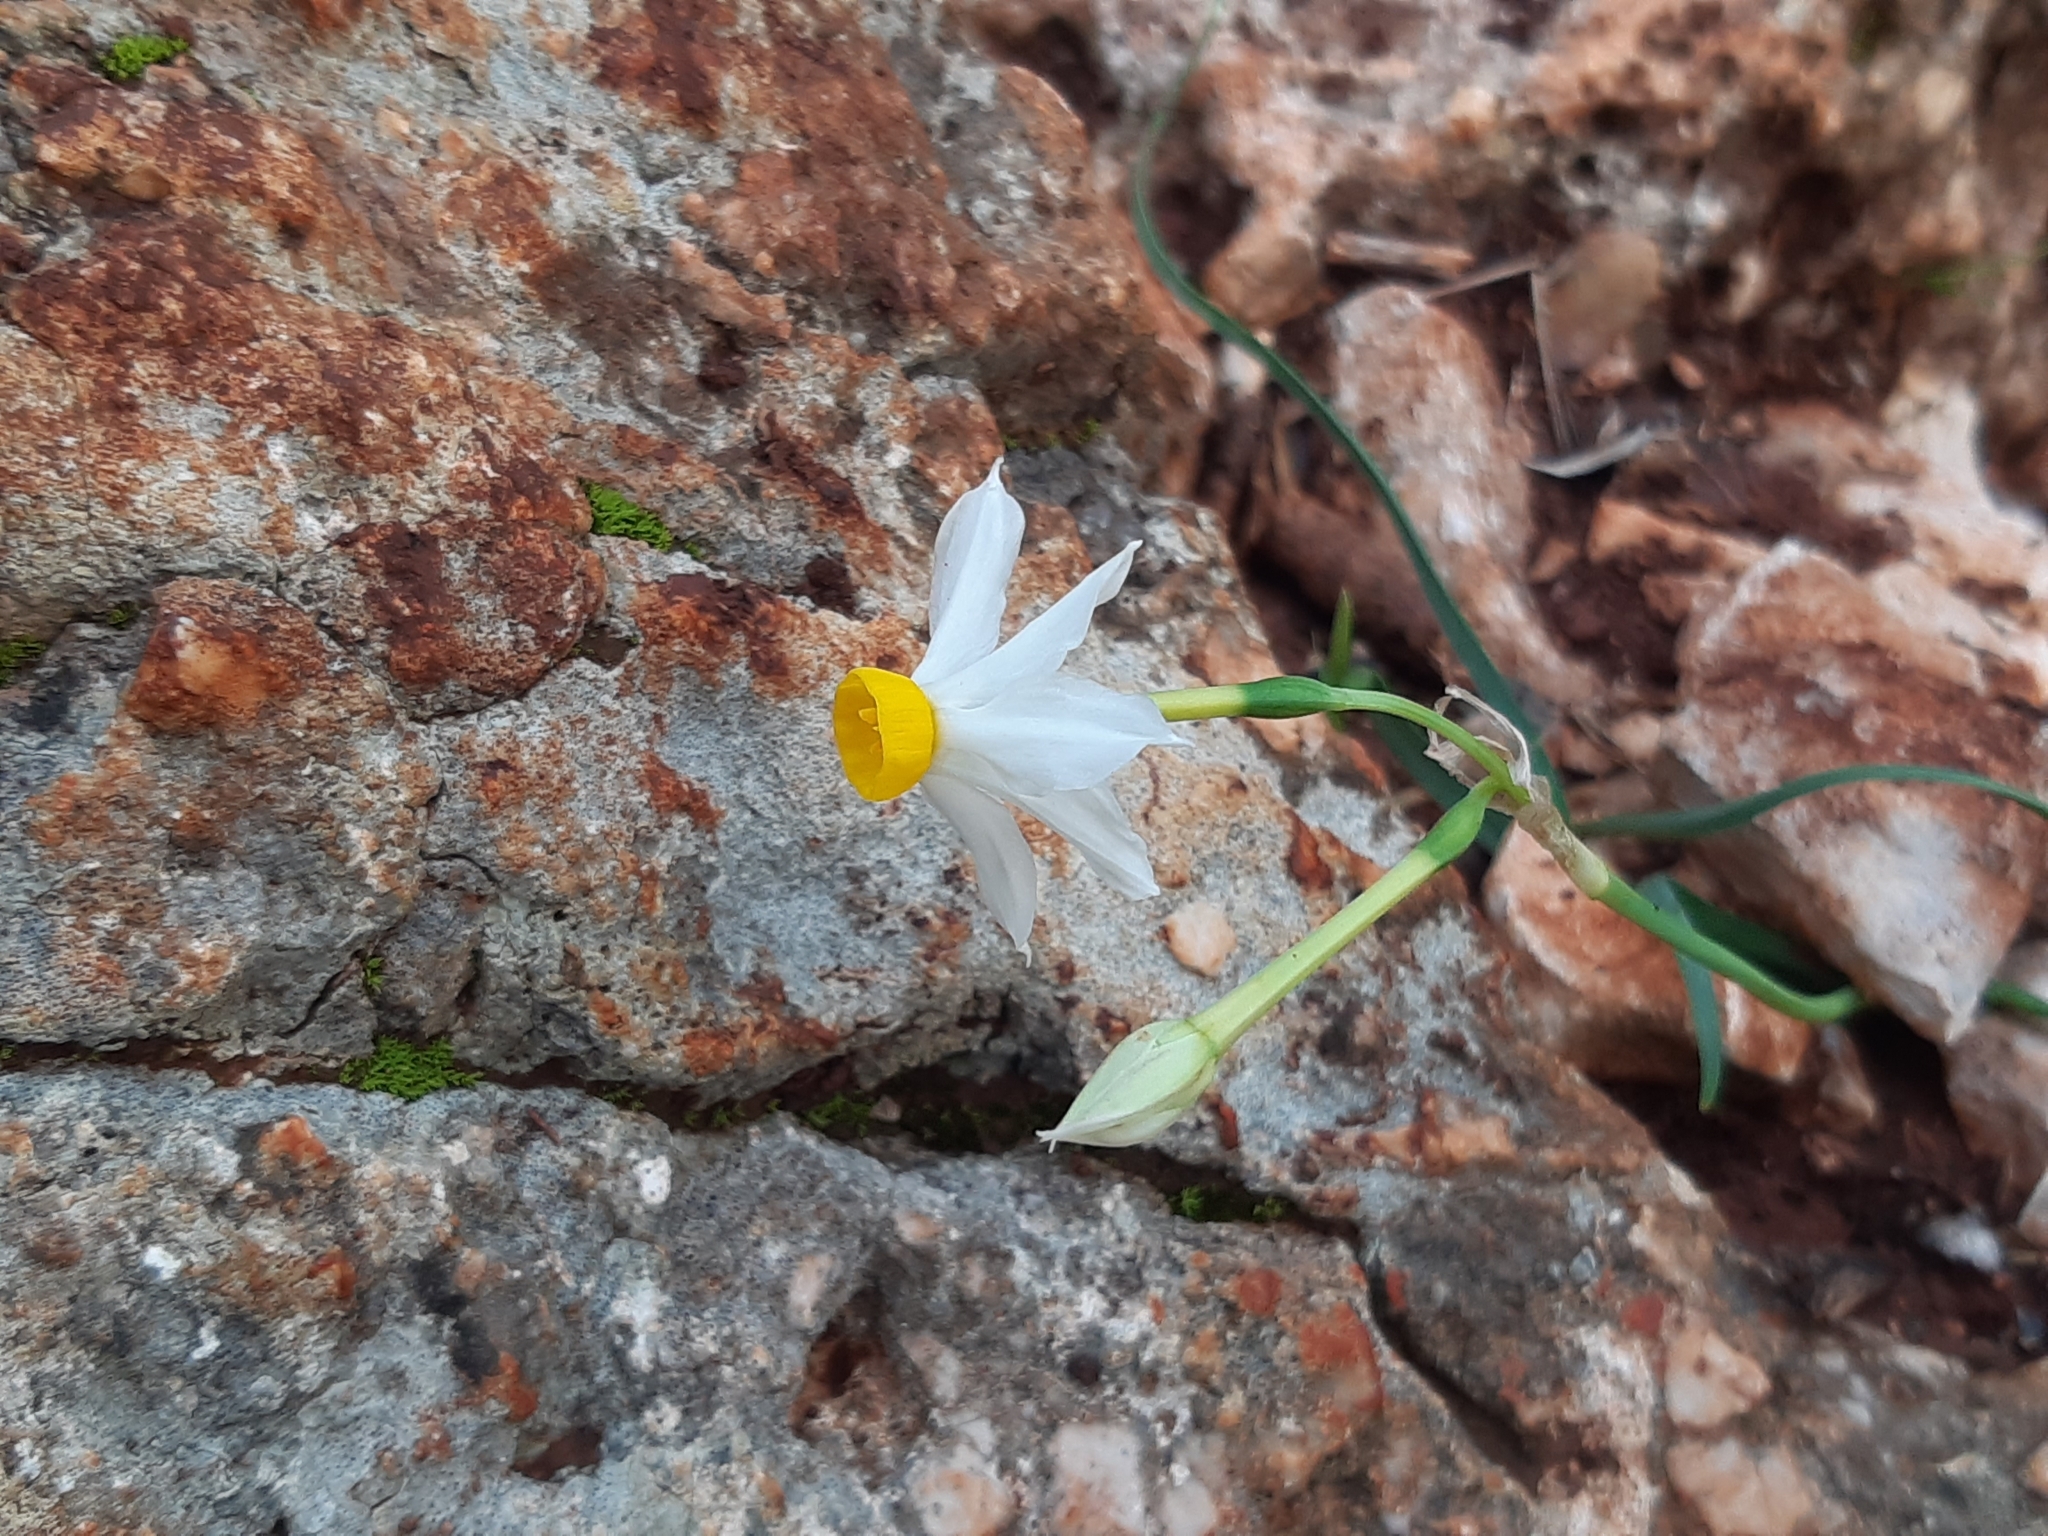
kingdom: Plantae
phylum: Tracheophyta
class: Liliopsida
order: Asparagales
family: Amaryllidaceae
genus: Narcissus
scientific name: Narcissus tazetta
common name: Bunch-flowered daffodil
